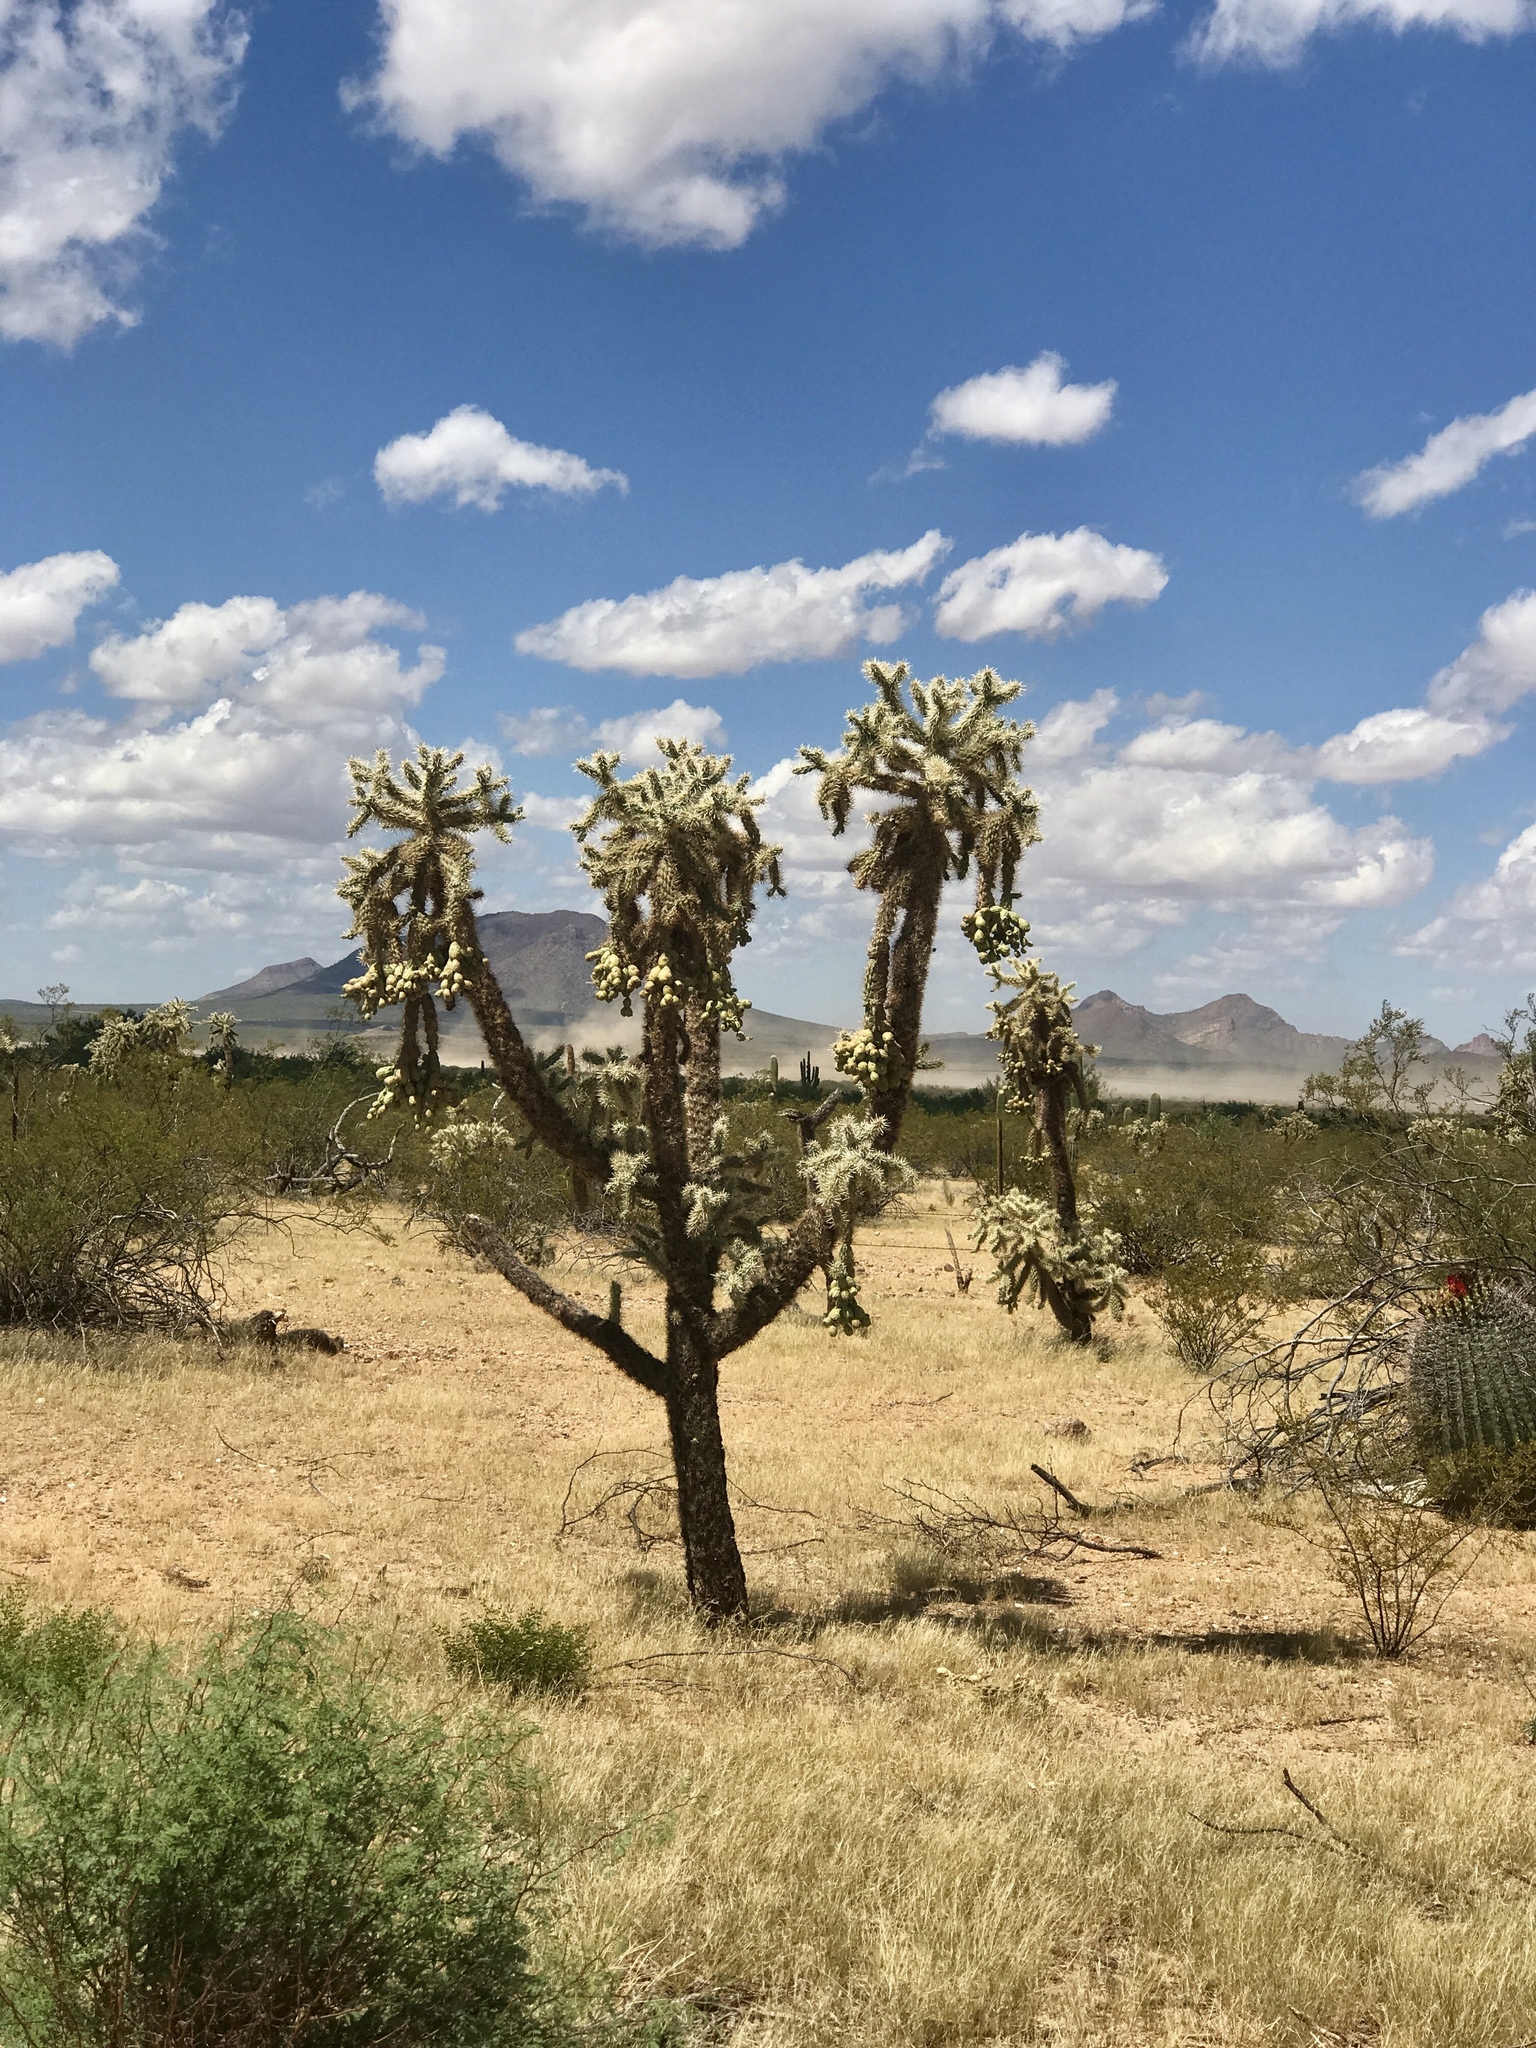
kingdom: Plantae
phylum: Tracheophyta
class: Magnoliopsida
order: Caryophyllales
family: Cactaceae
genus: Cylindropuntia
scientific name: Cylindropuntia fulgida
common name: Jumping cholla
